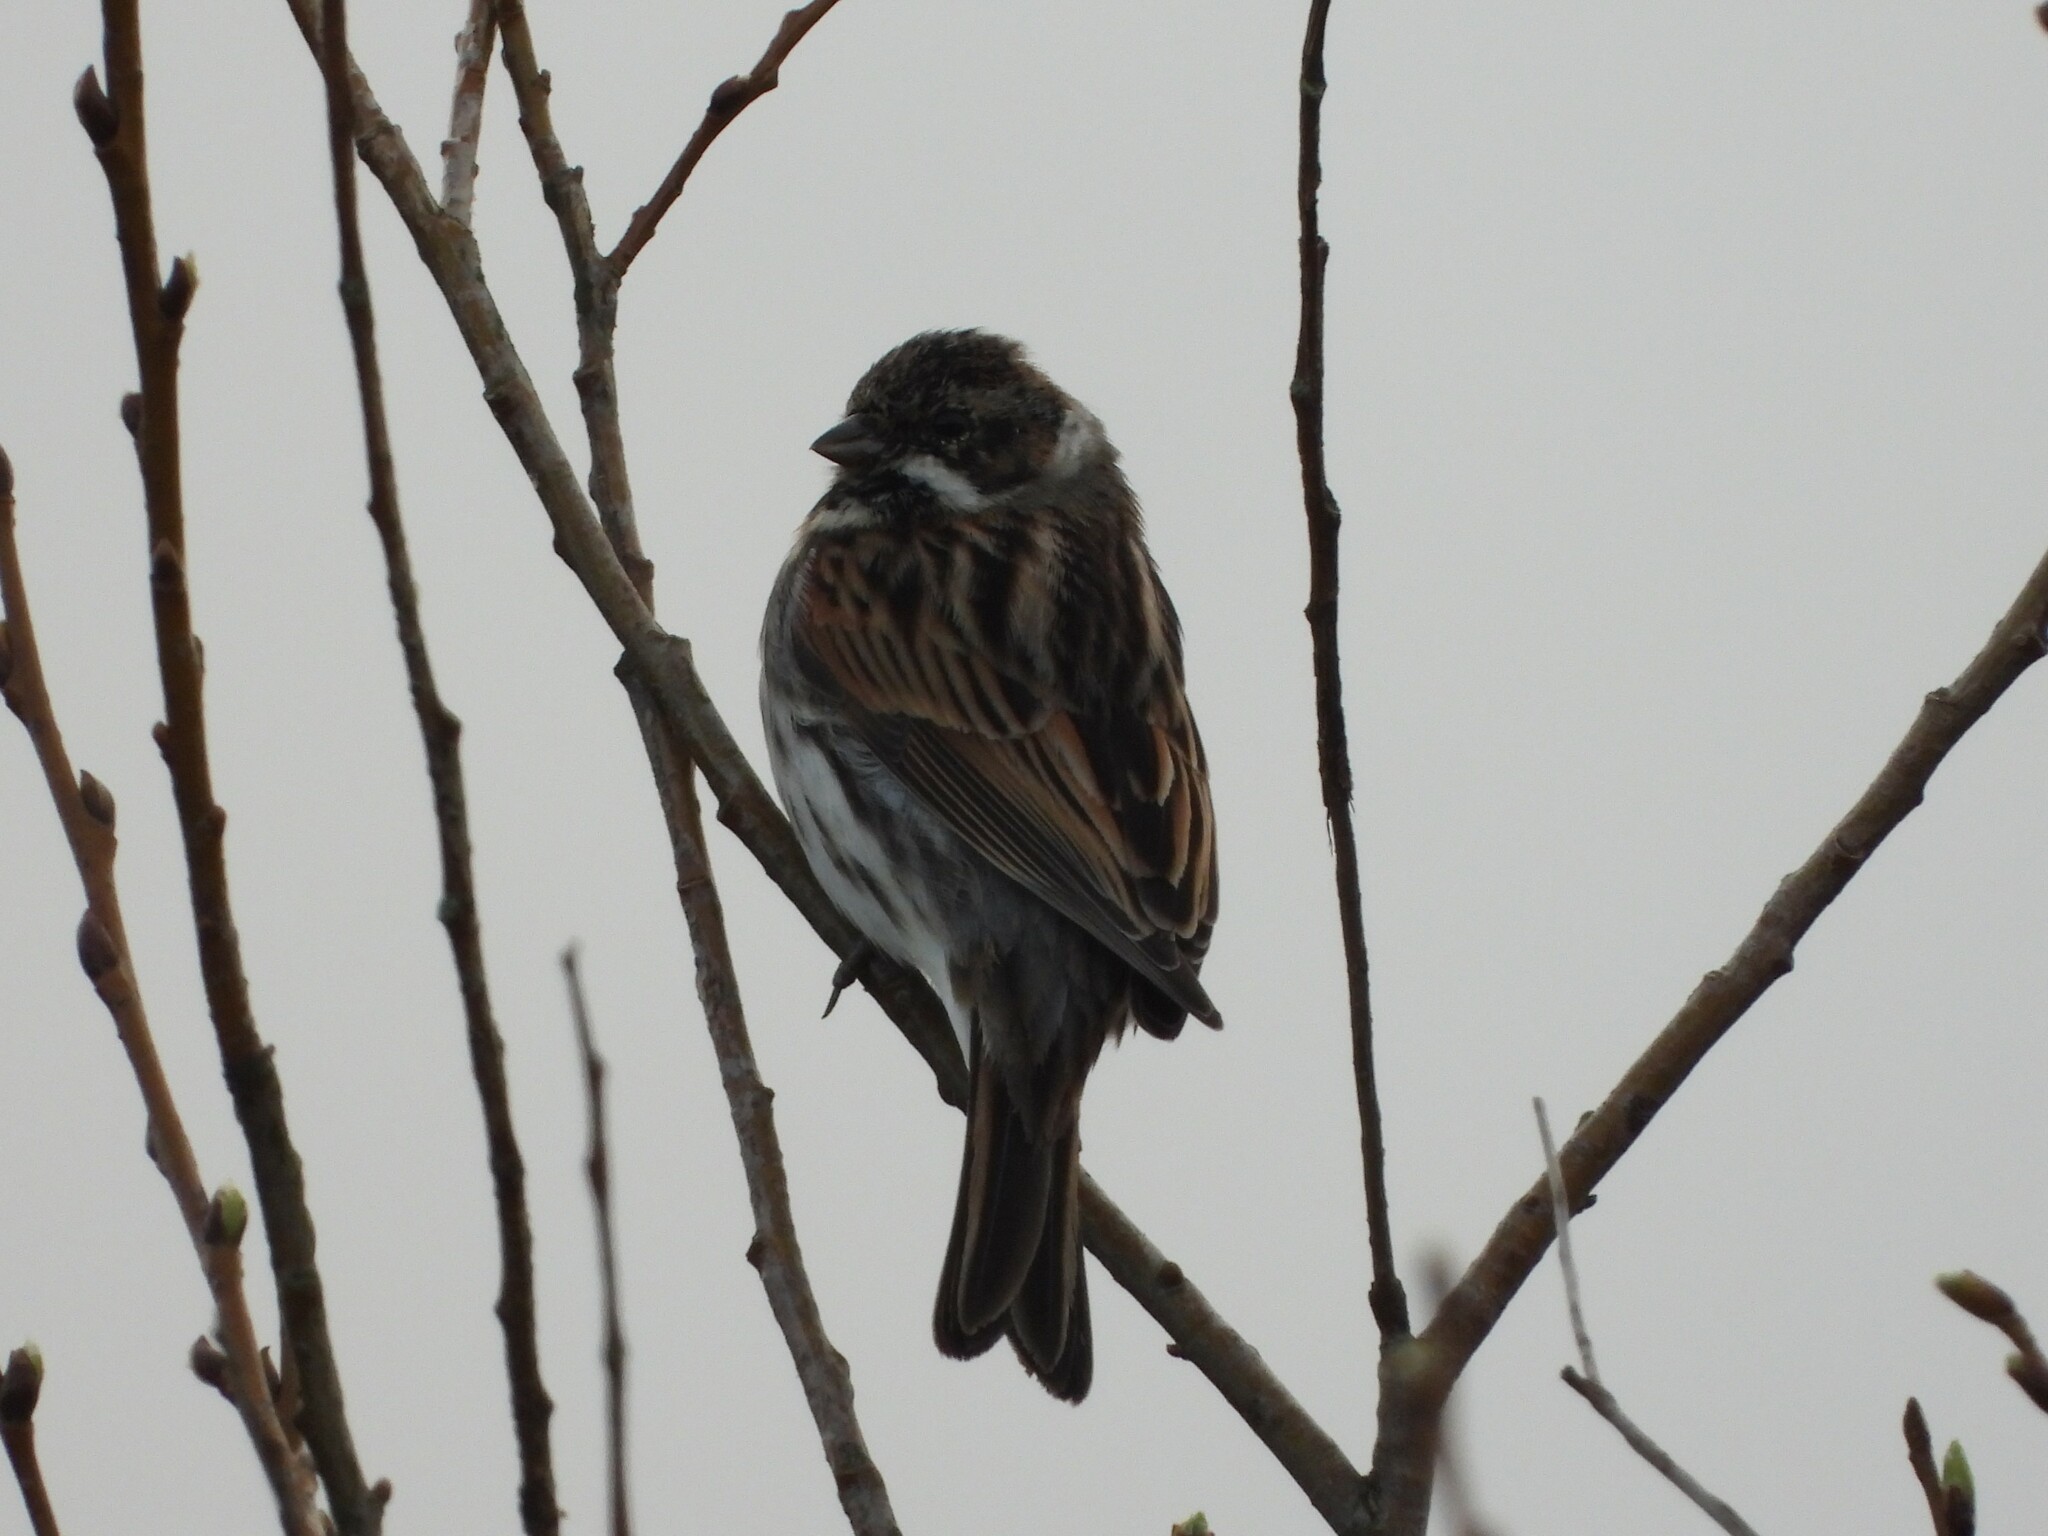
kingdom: Animalia
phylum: Chordata
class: Aves
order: Passeriformes
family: Emberizidae
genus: Emberiza
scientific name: Emberiza schoeniclus
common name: Reed bunting
